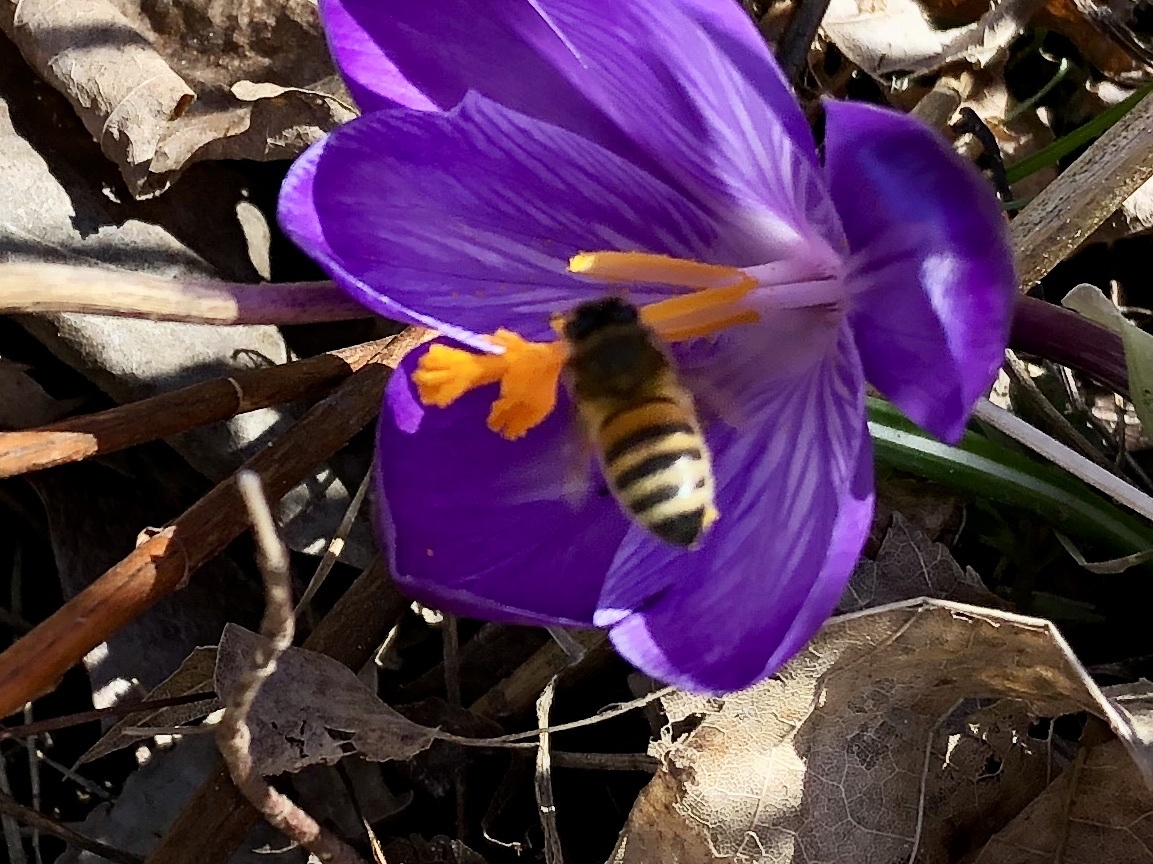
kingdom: Animalia
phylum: Arthropoda
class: Insecta
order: Hymenoptera
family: Apidae
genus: Apis
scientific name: Apis mellifera
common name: Honey bee
